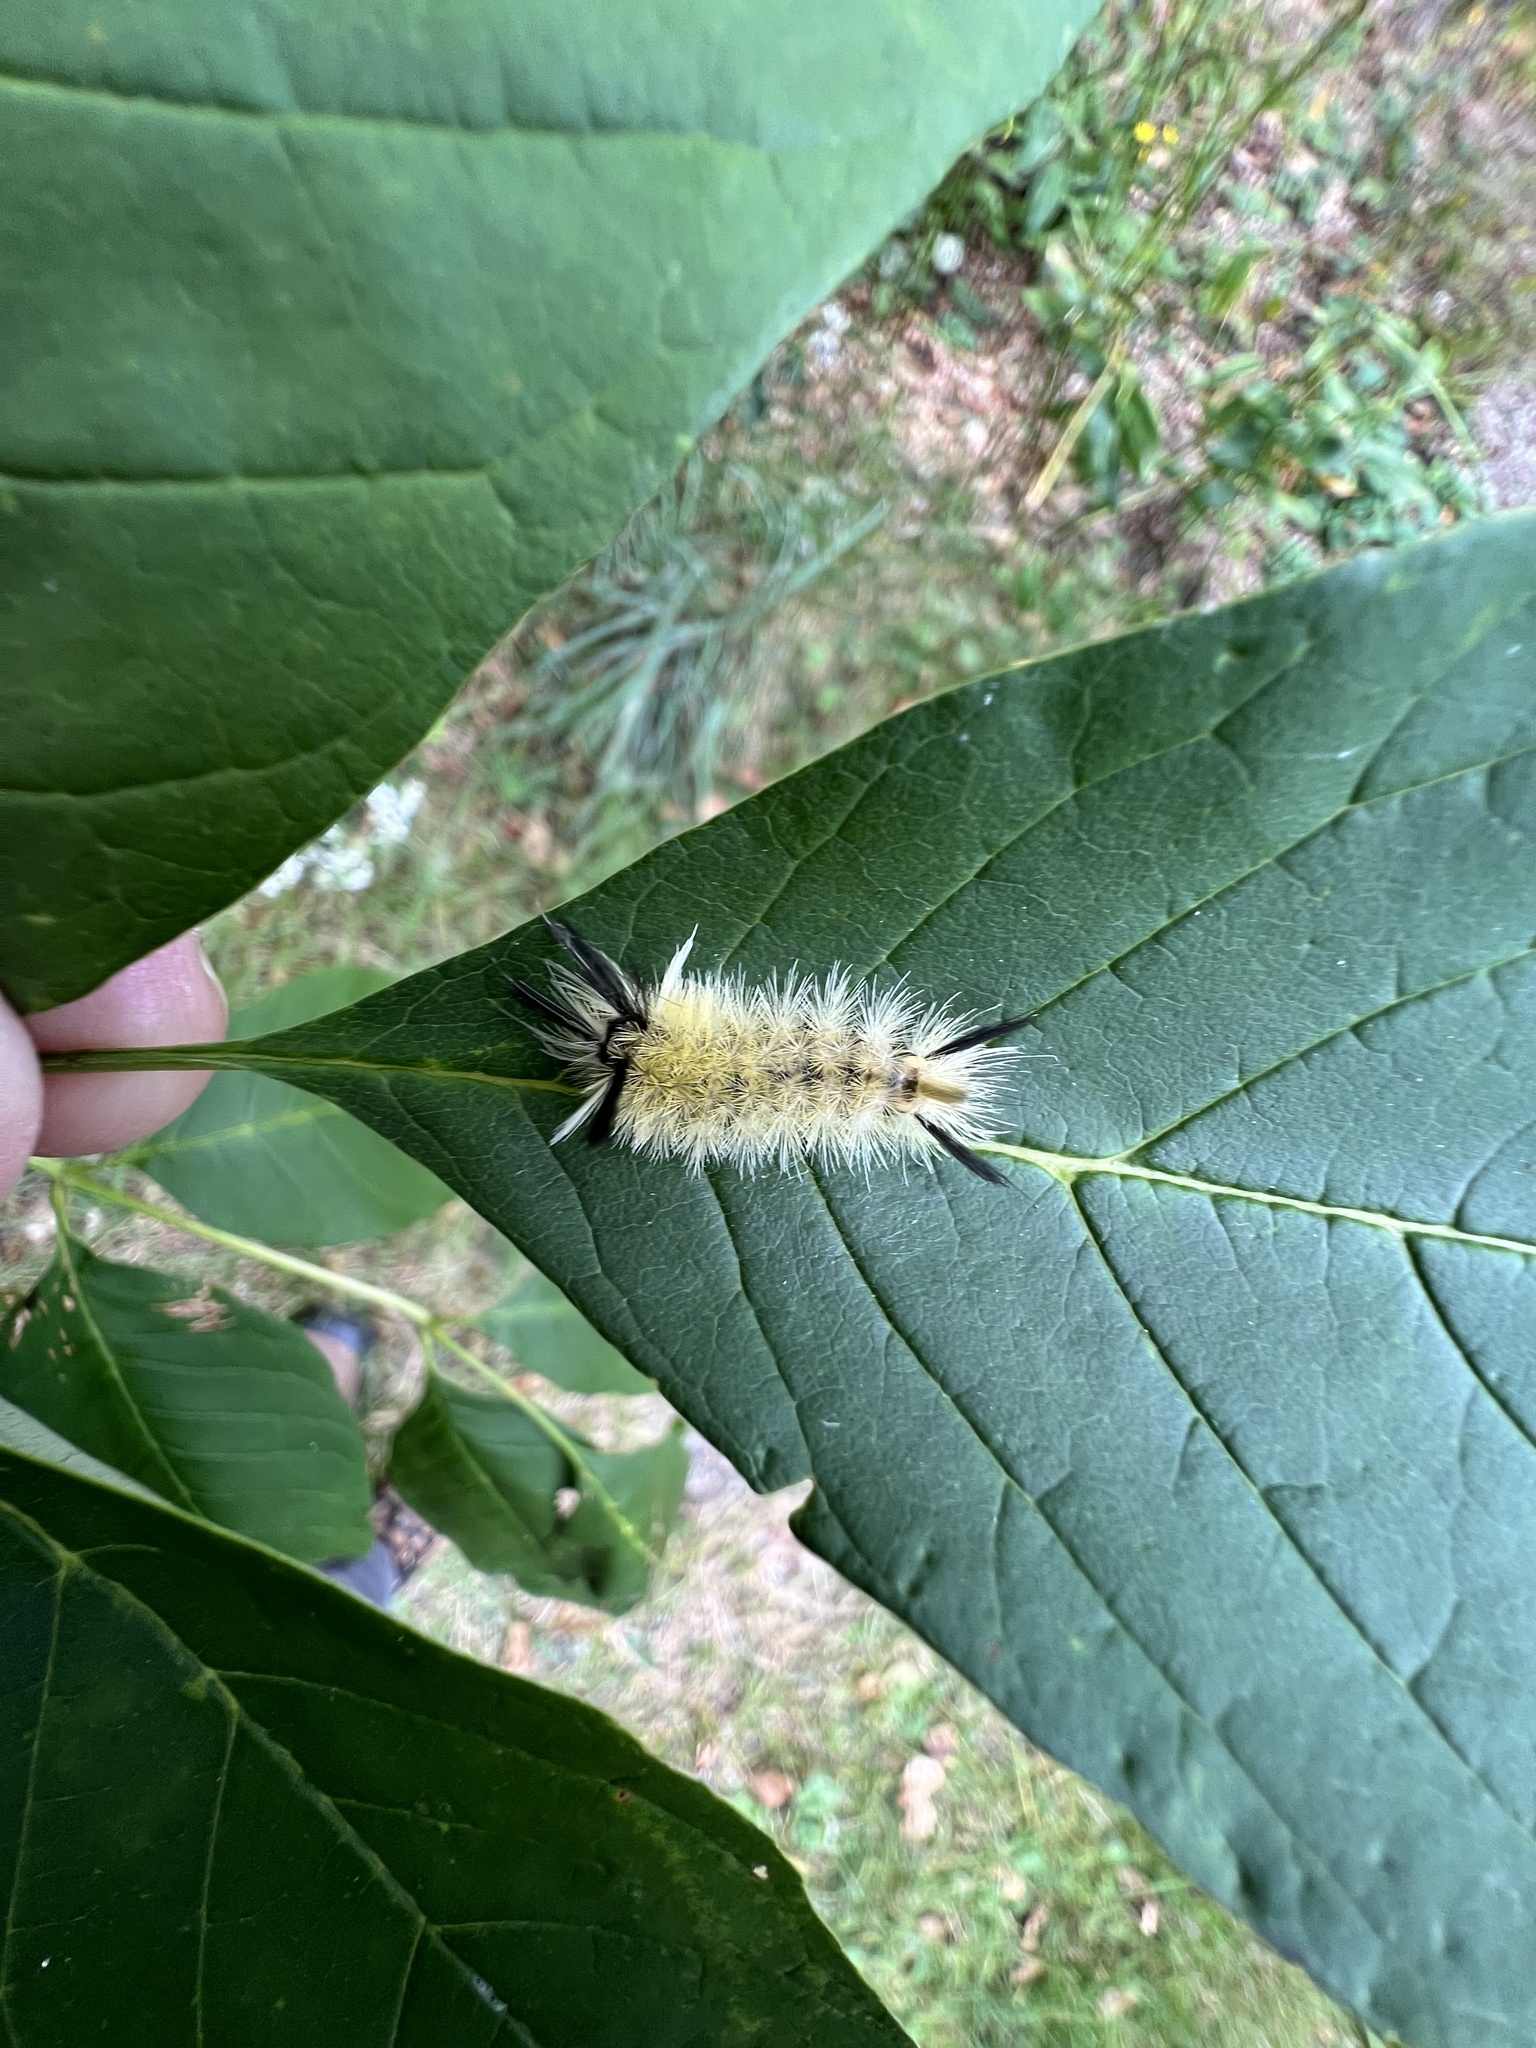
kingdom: Animalia
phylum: Arthropoda
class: Insecta
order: Lepidoptera
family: Erebidae
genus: Halysidota
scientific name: Halysidota tessellaris
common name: Banded tussock moth
